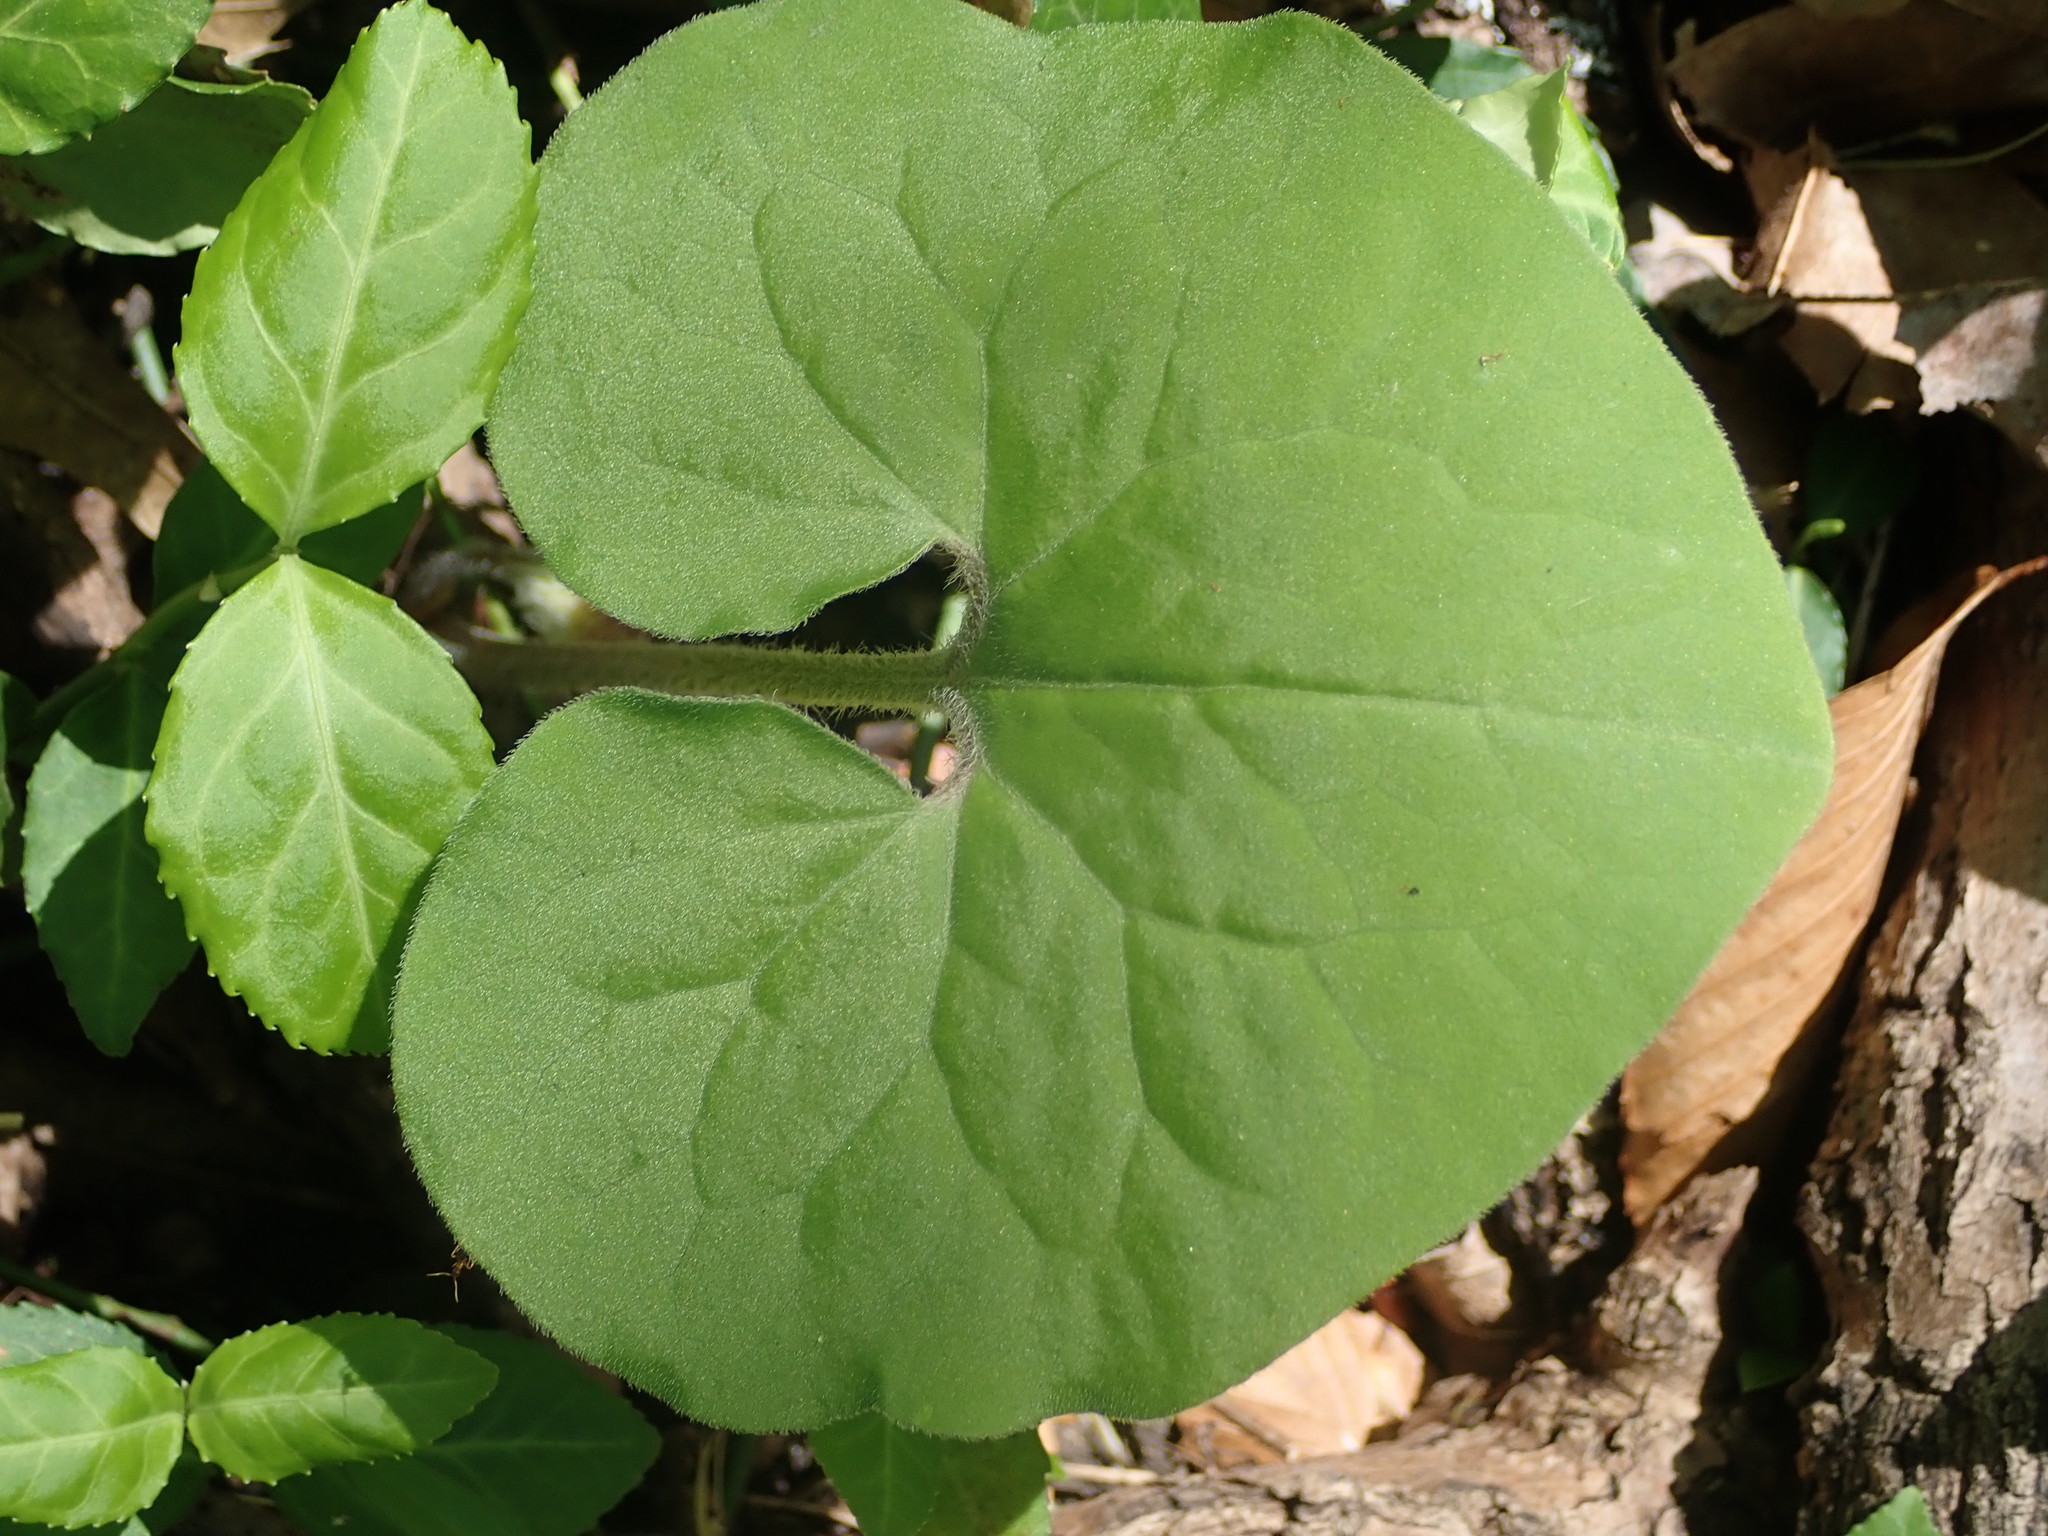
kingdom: Plantae
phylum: Tracheophyta
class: Magnoliopsida
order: Piperales
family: Aristolochiaceae
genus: Asarum
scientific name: Asarum canadense
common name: Wild ginger
